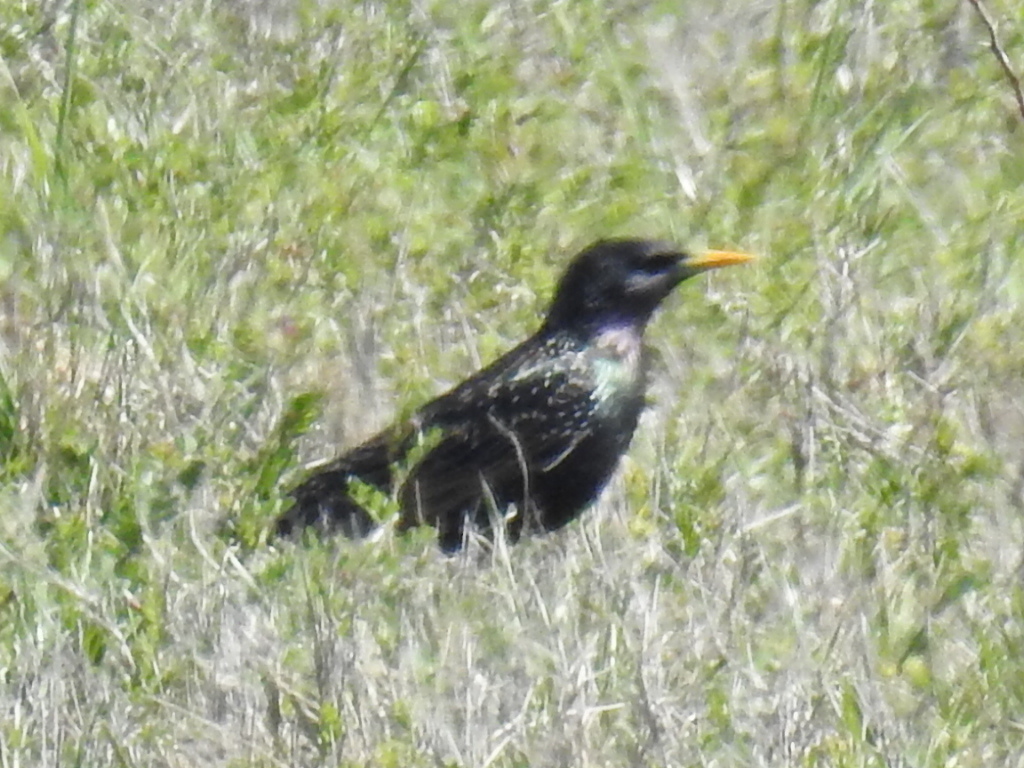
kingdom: Animalia
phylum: Chordata
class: Aves
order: Passeriformes
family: Sturnidae
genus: Sturnus
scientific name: Sturnus vulgaris
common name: Common starling
